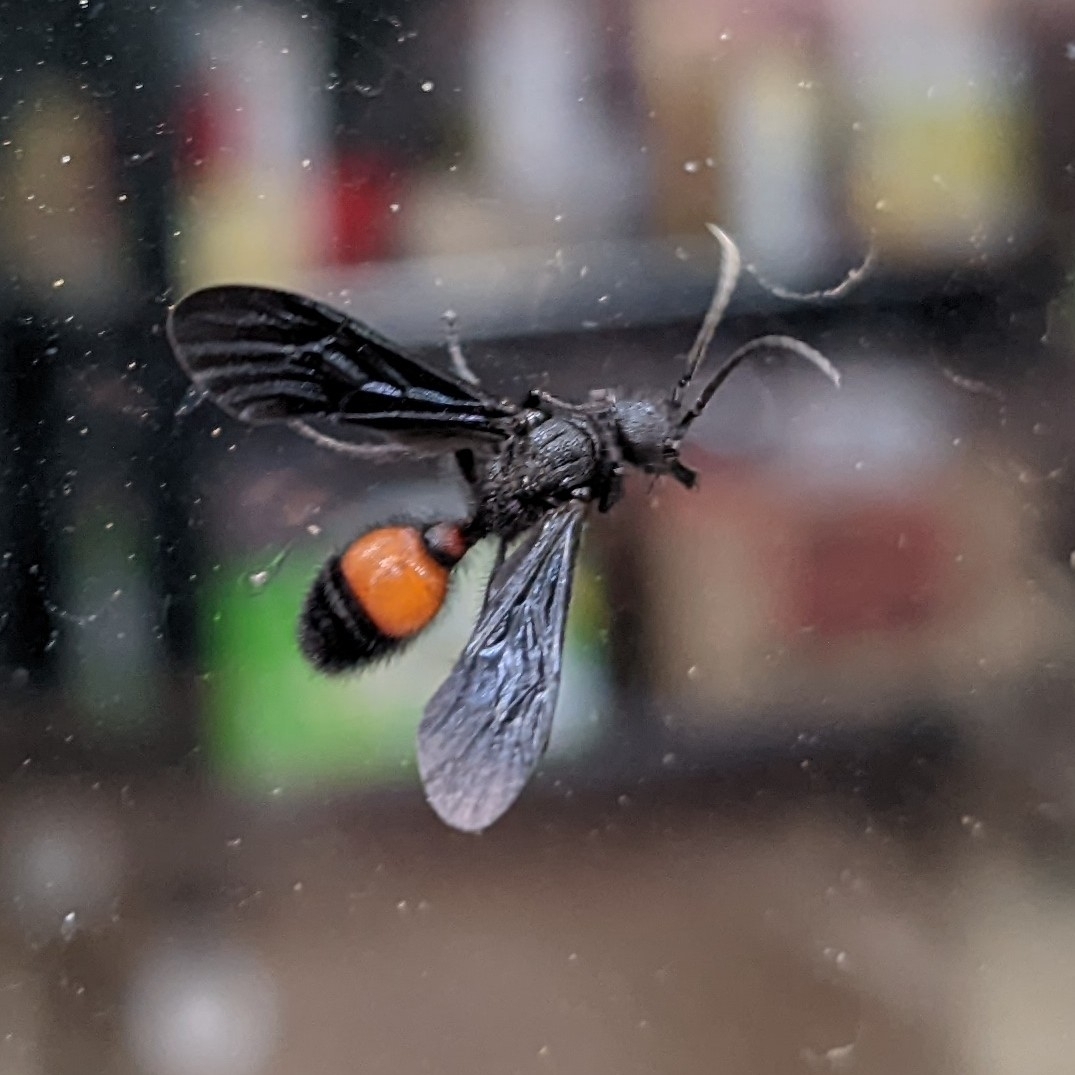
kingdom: Animalia
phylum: Arthropoda
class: Insecta
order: Hymenoptera
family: Mutillidae
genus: Sphaeropthalma
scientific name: Sphaeropthalma
